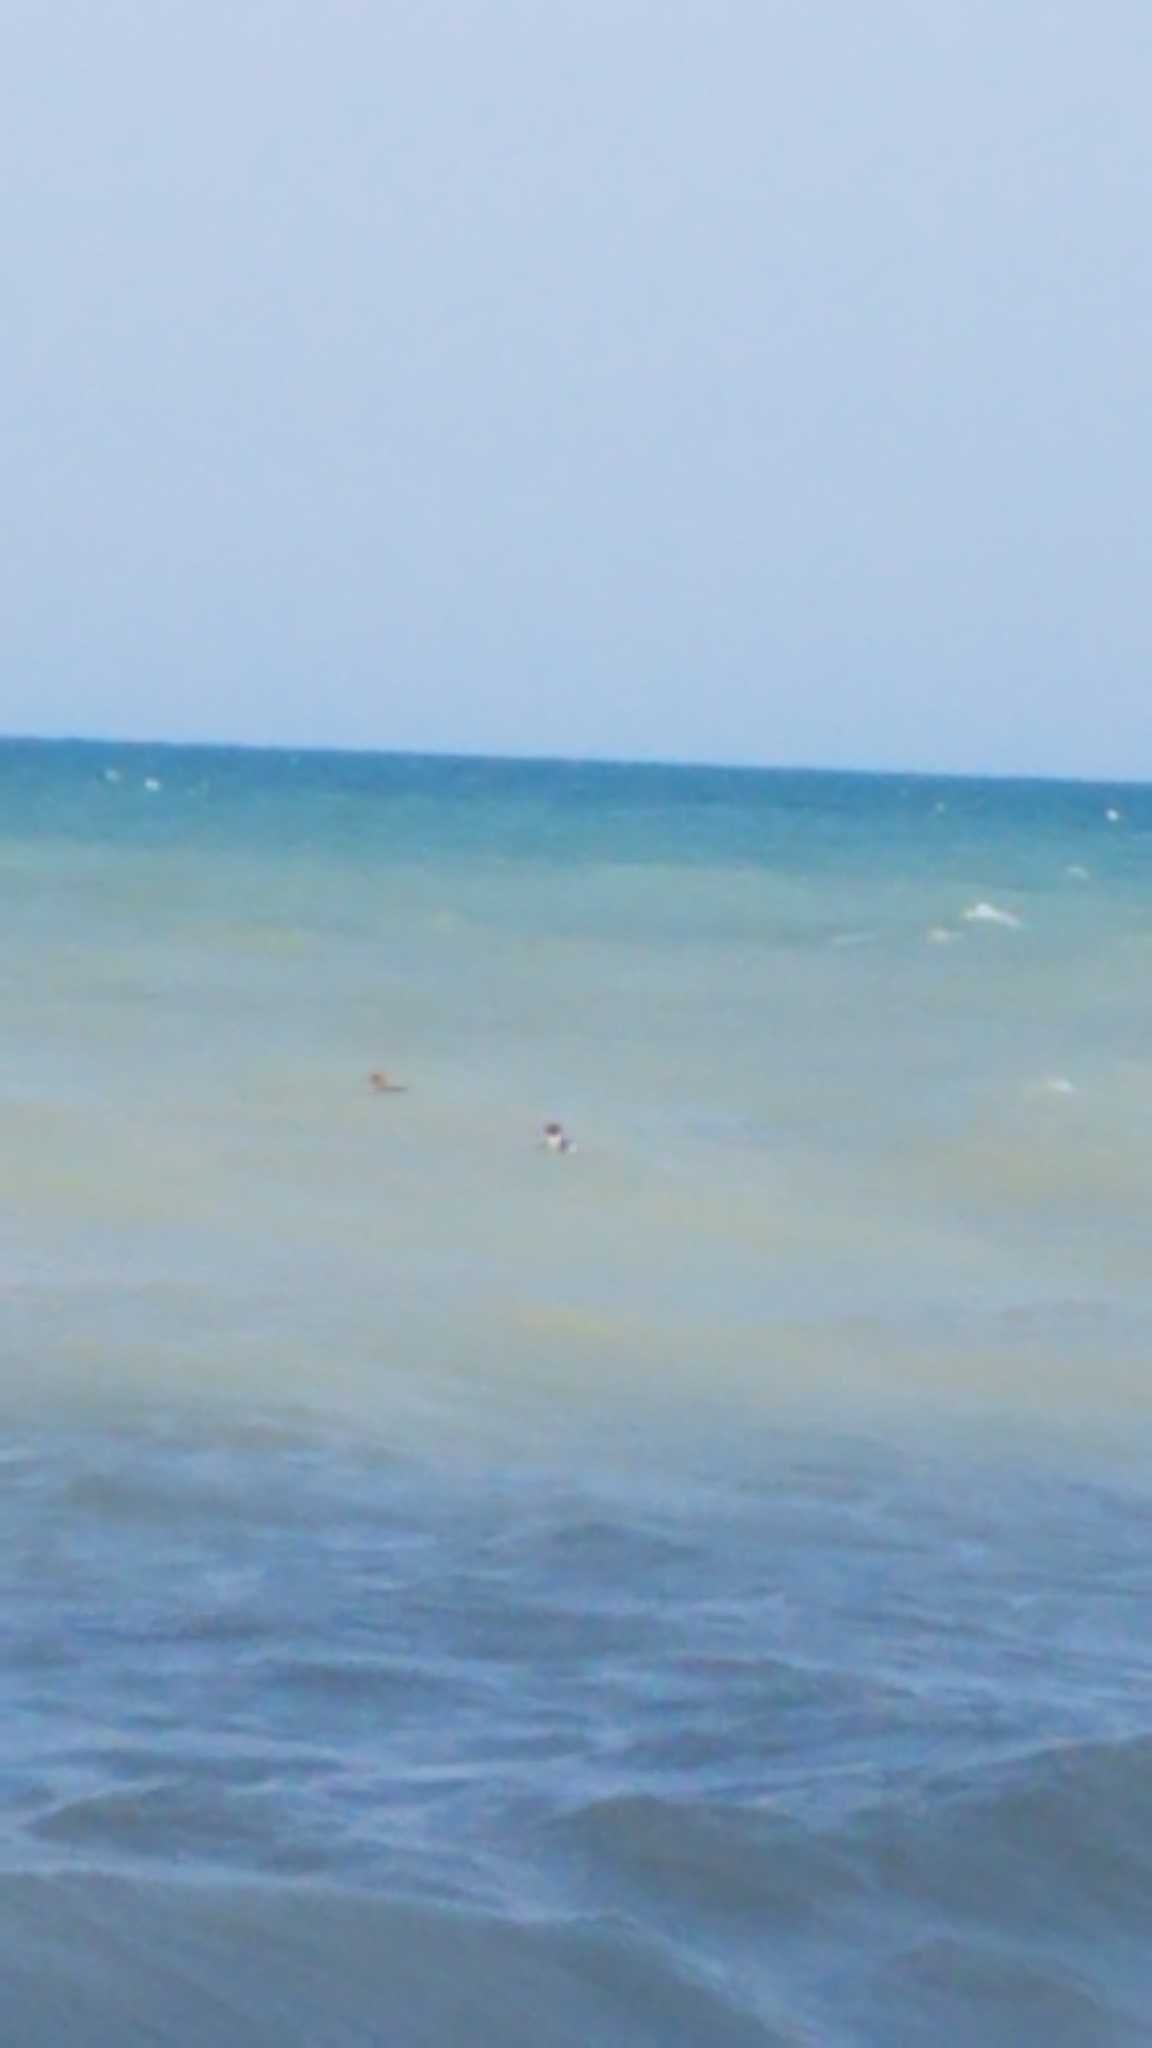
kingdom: Animalia
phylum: Chordata
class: Aves
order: Anseriformes
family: Anatidae
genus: Mergus
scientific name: Mergus serrator
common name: Red-breasted merganser
